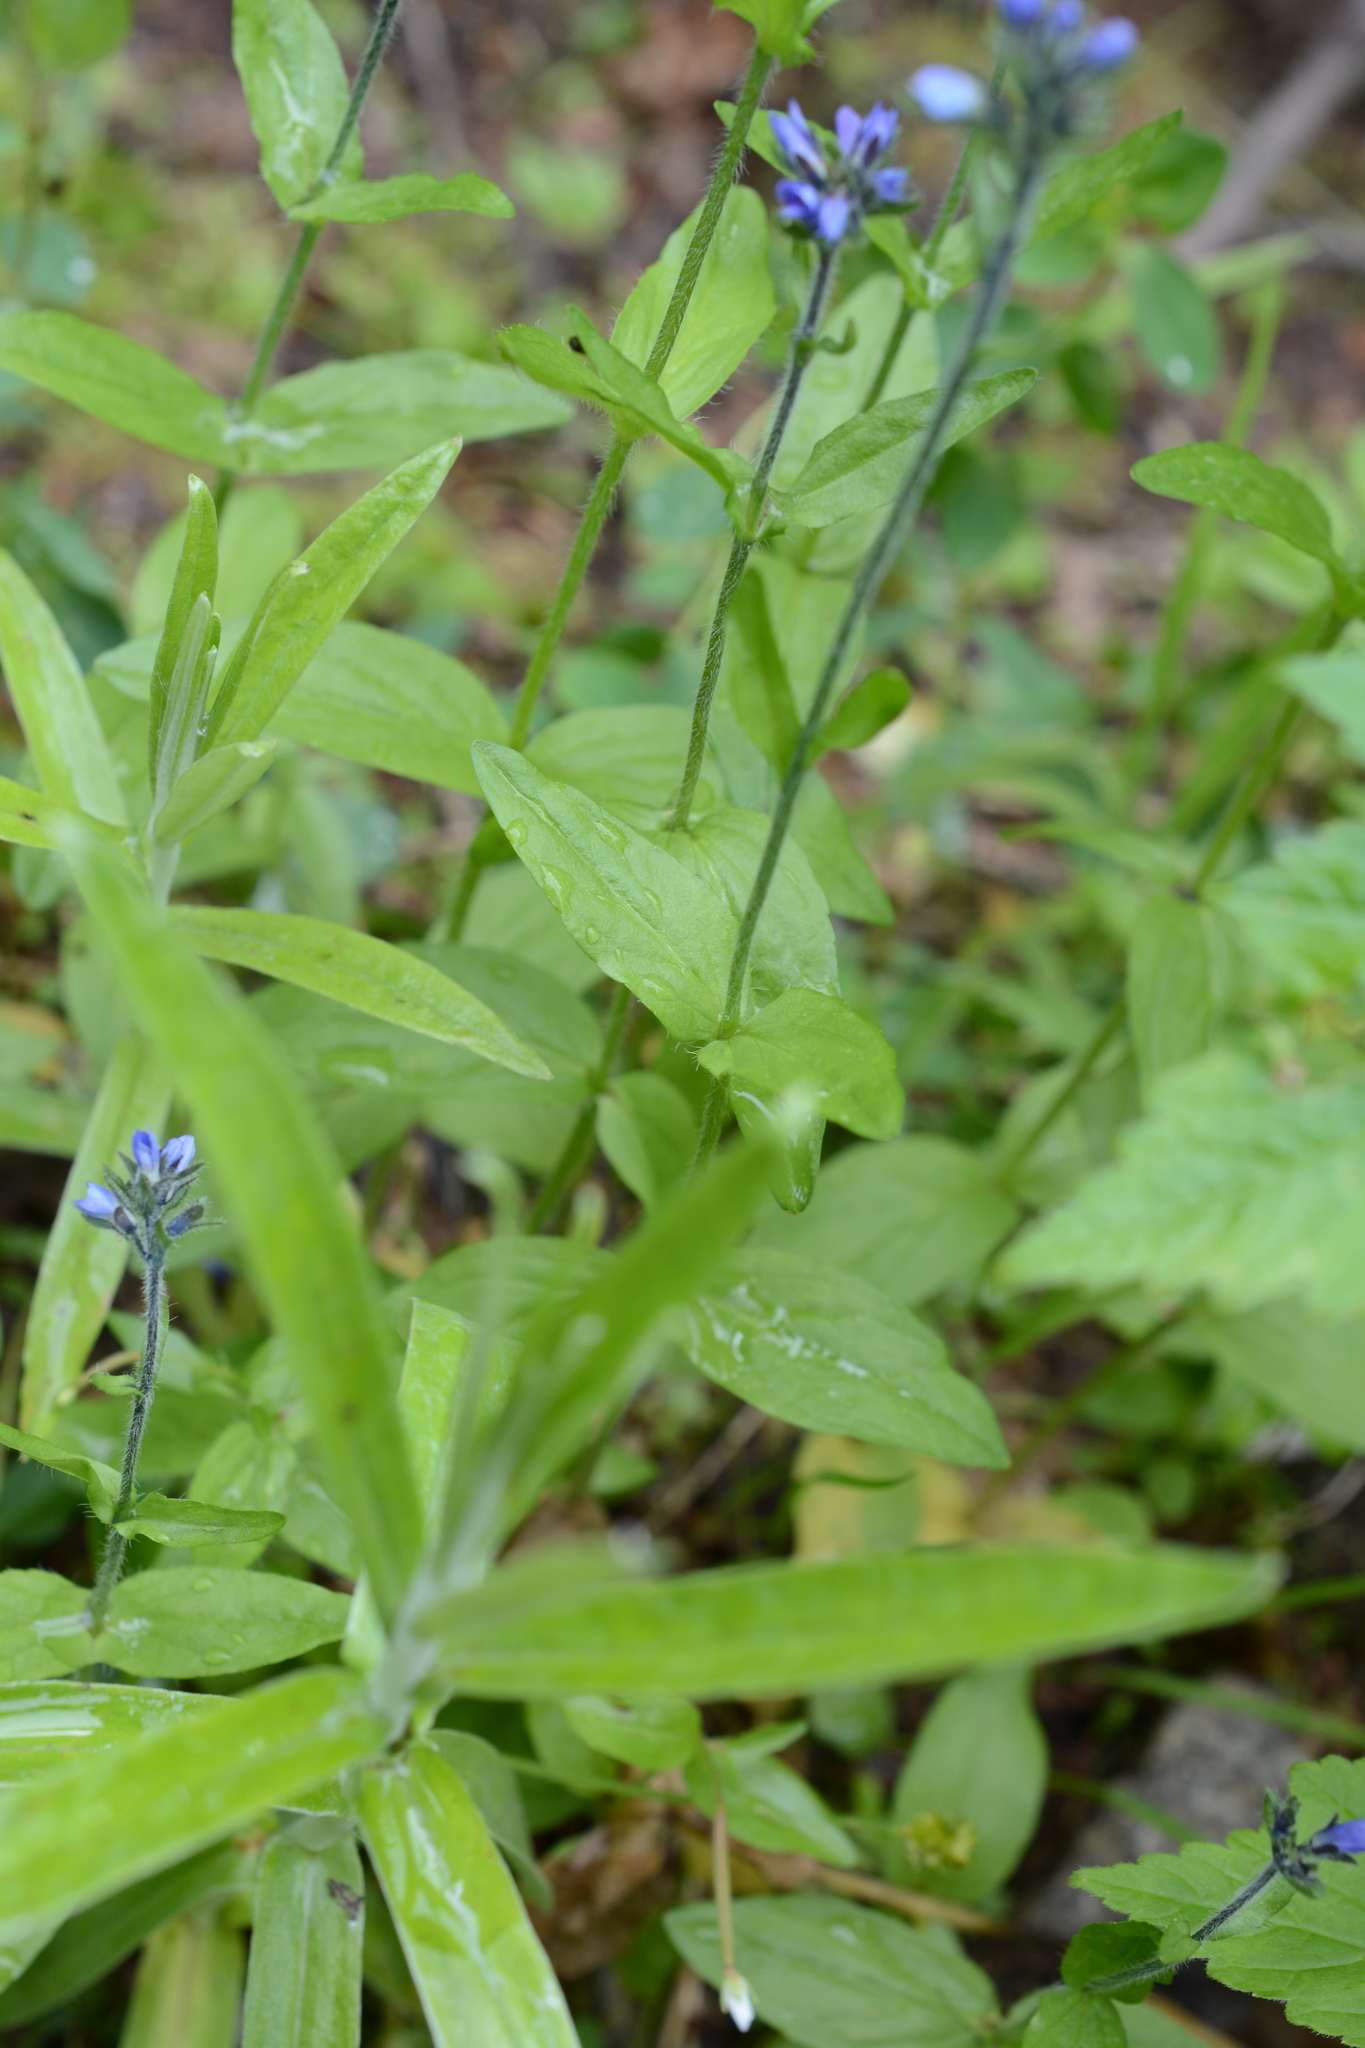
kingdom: Plantae
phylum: Tracheophyta
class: Magnoliopsida
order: Lamiales
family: Plantaginaceae
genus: Veronica
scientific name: Veronica wormskjoldii
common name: American alpine speedwell
